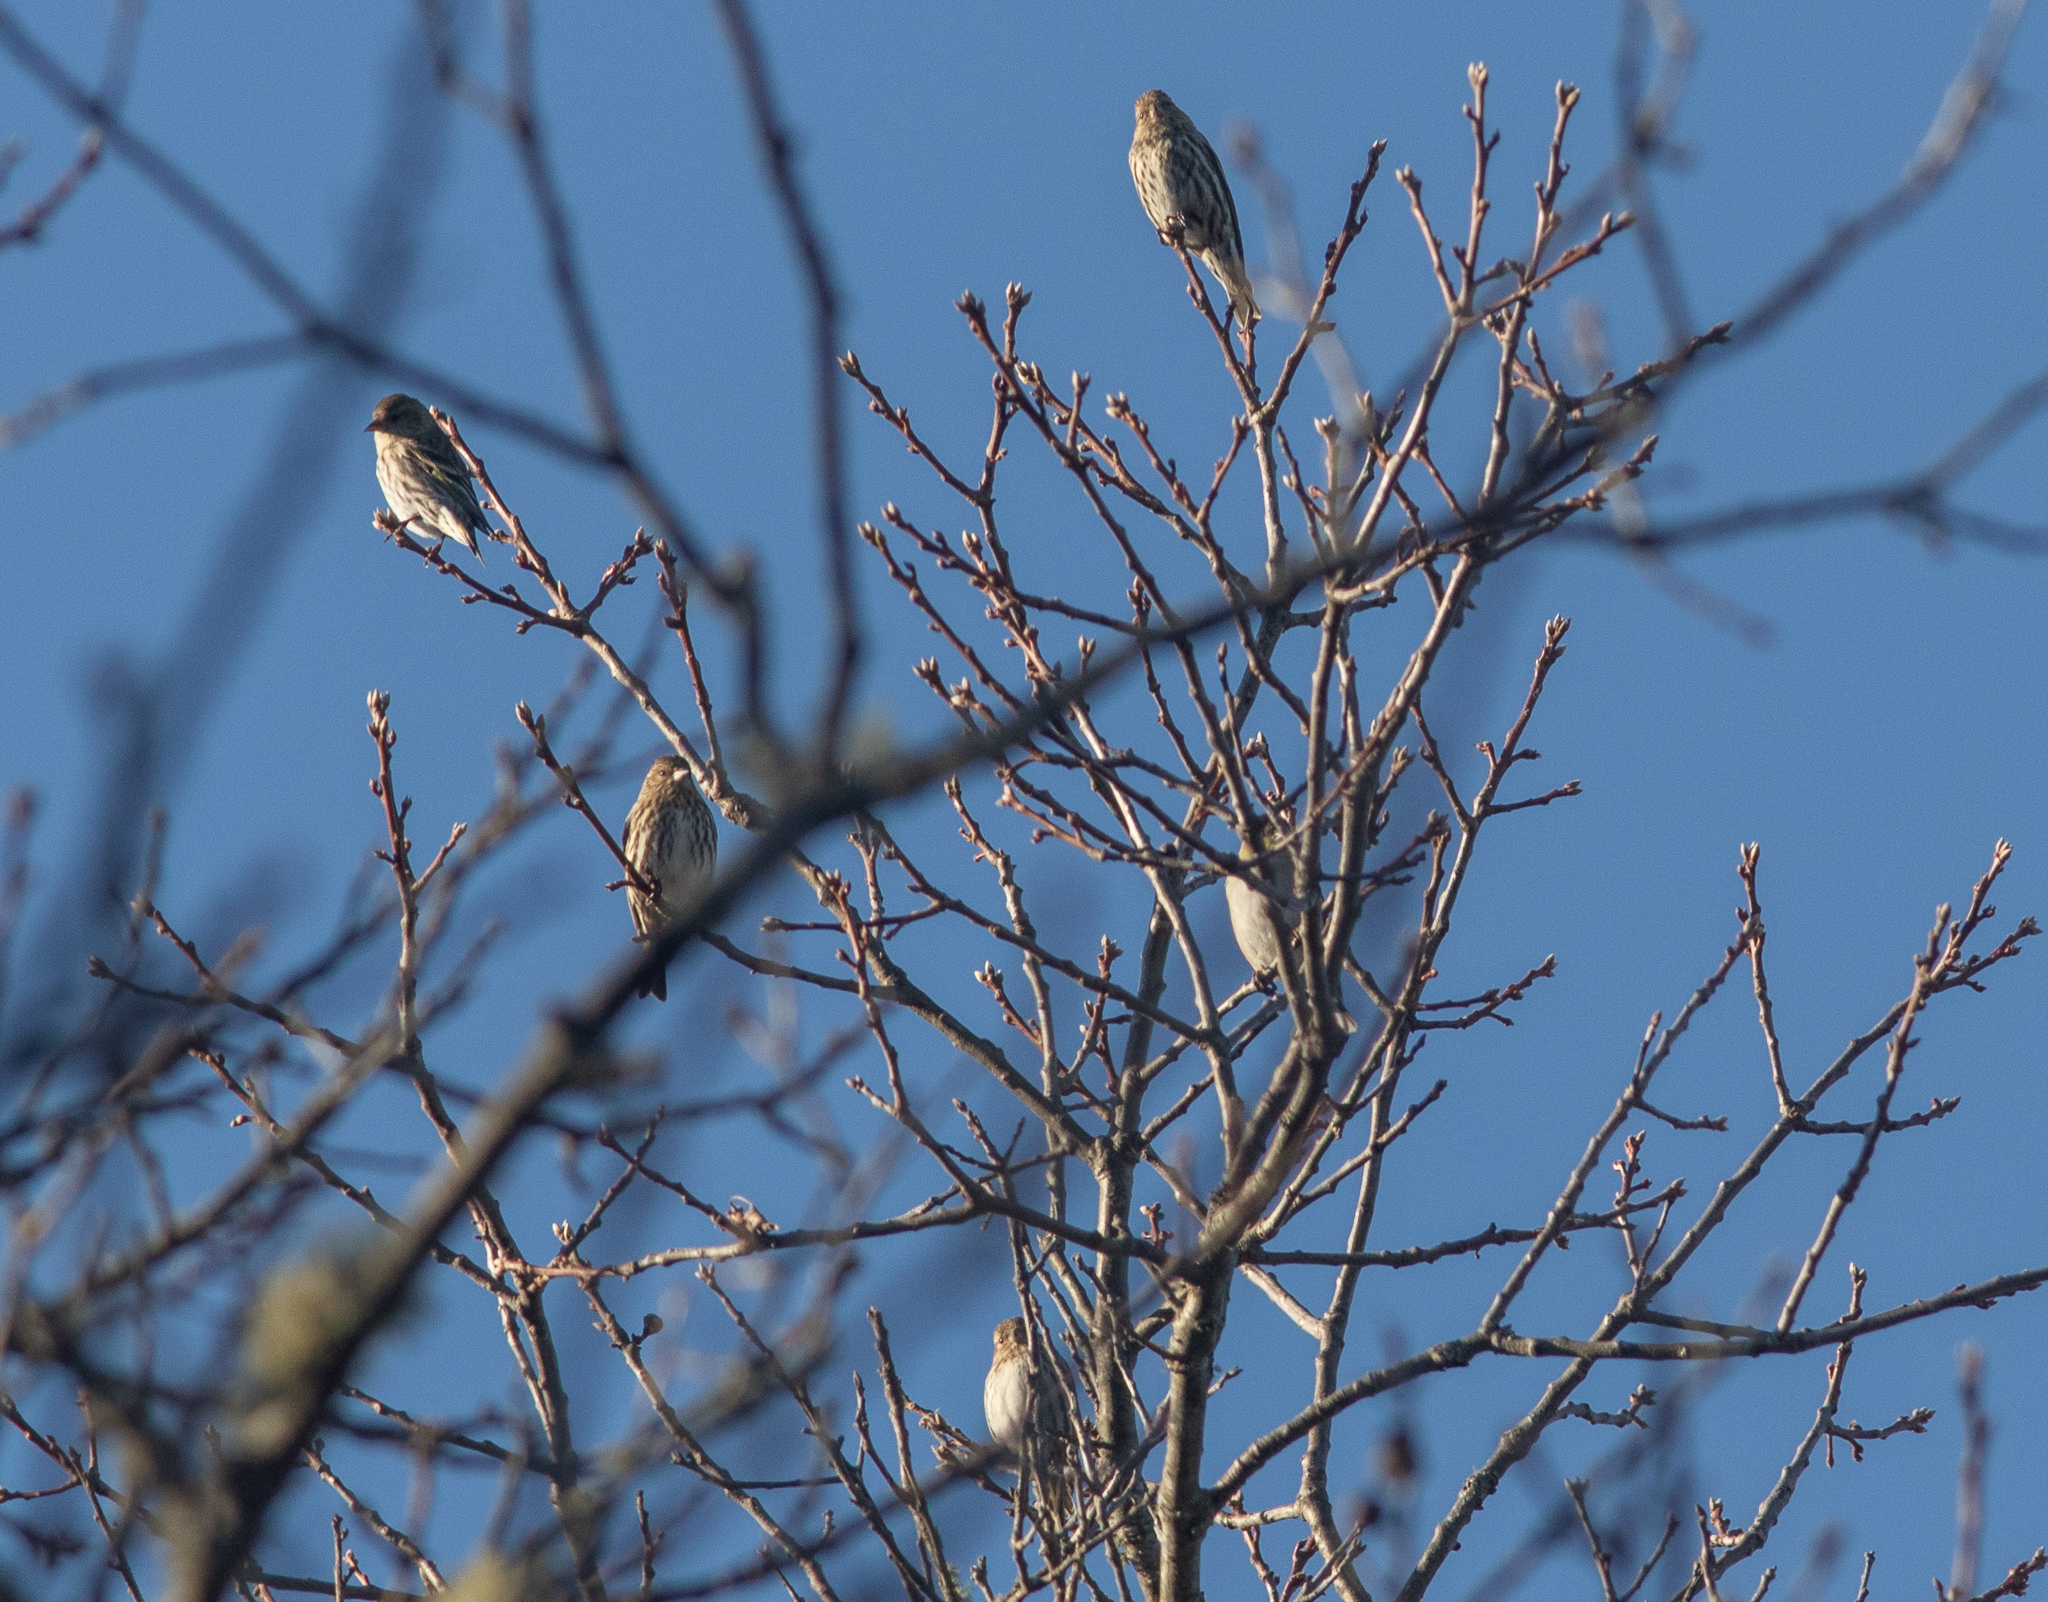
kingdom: Animalia
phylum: Chordata
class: Aves
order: Passeriformes
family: Fringillidae
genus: Spinus
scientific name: Spinus pinus
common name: Pine siskin
